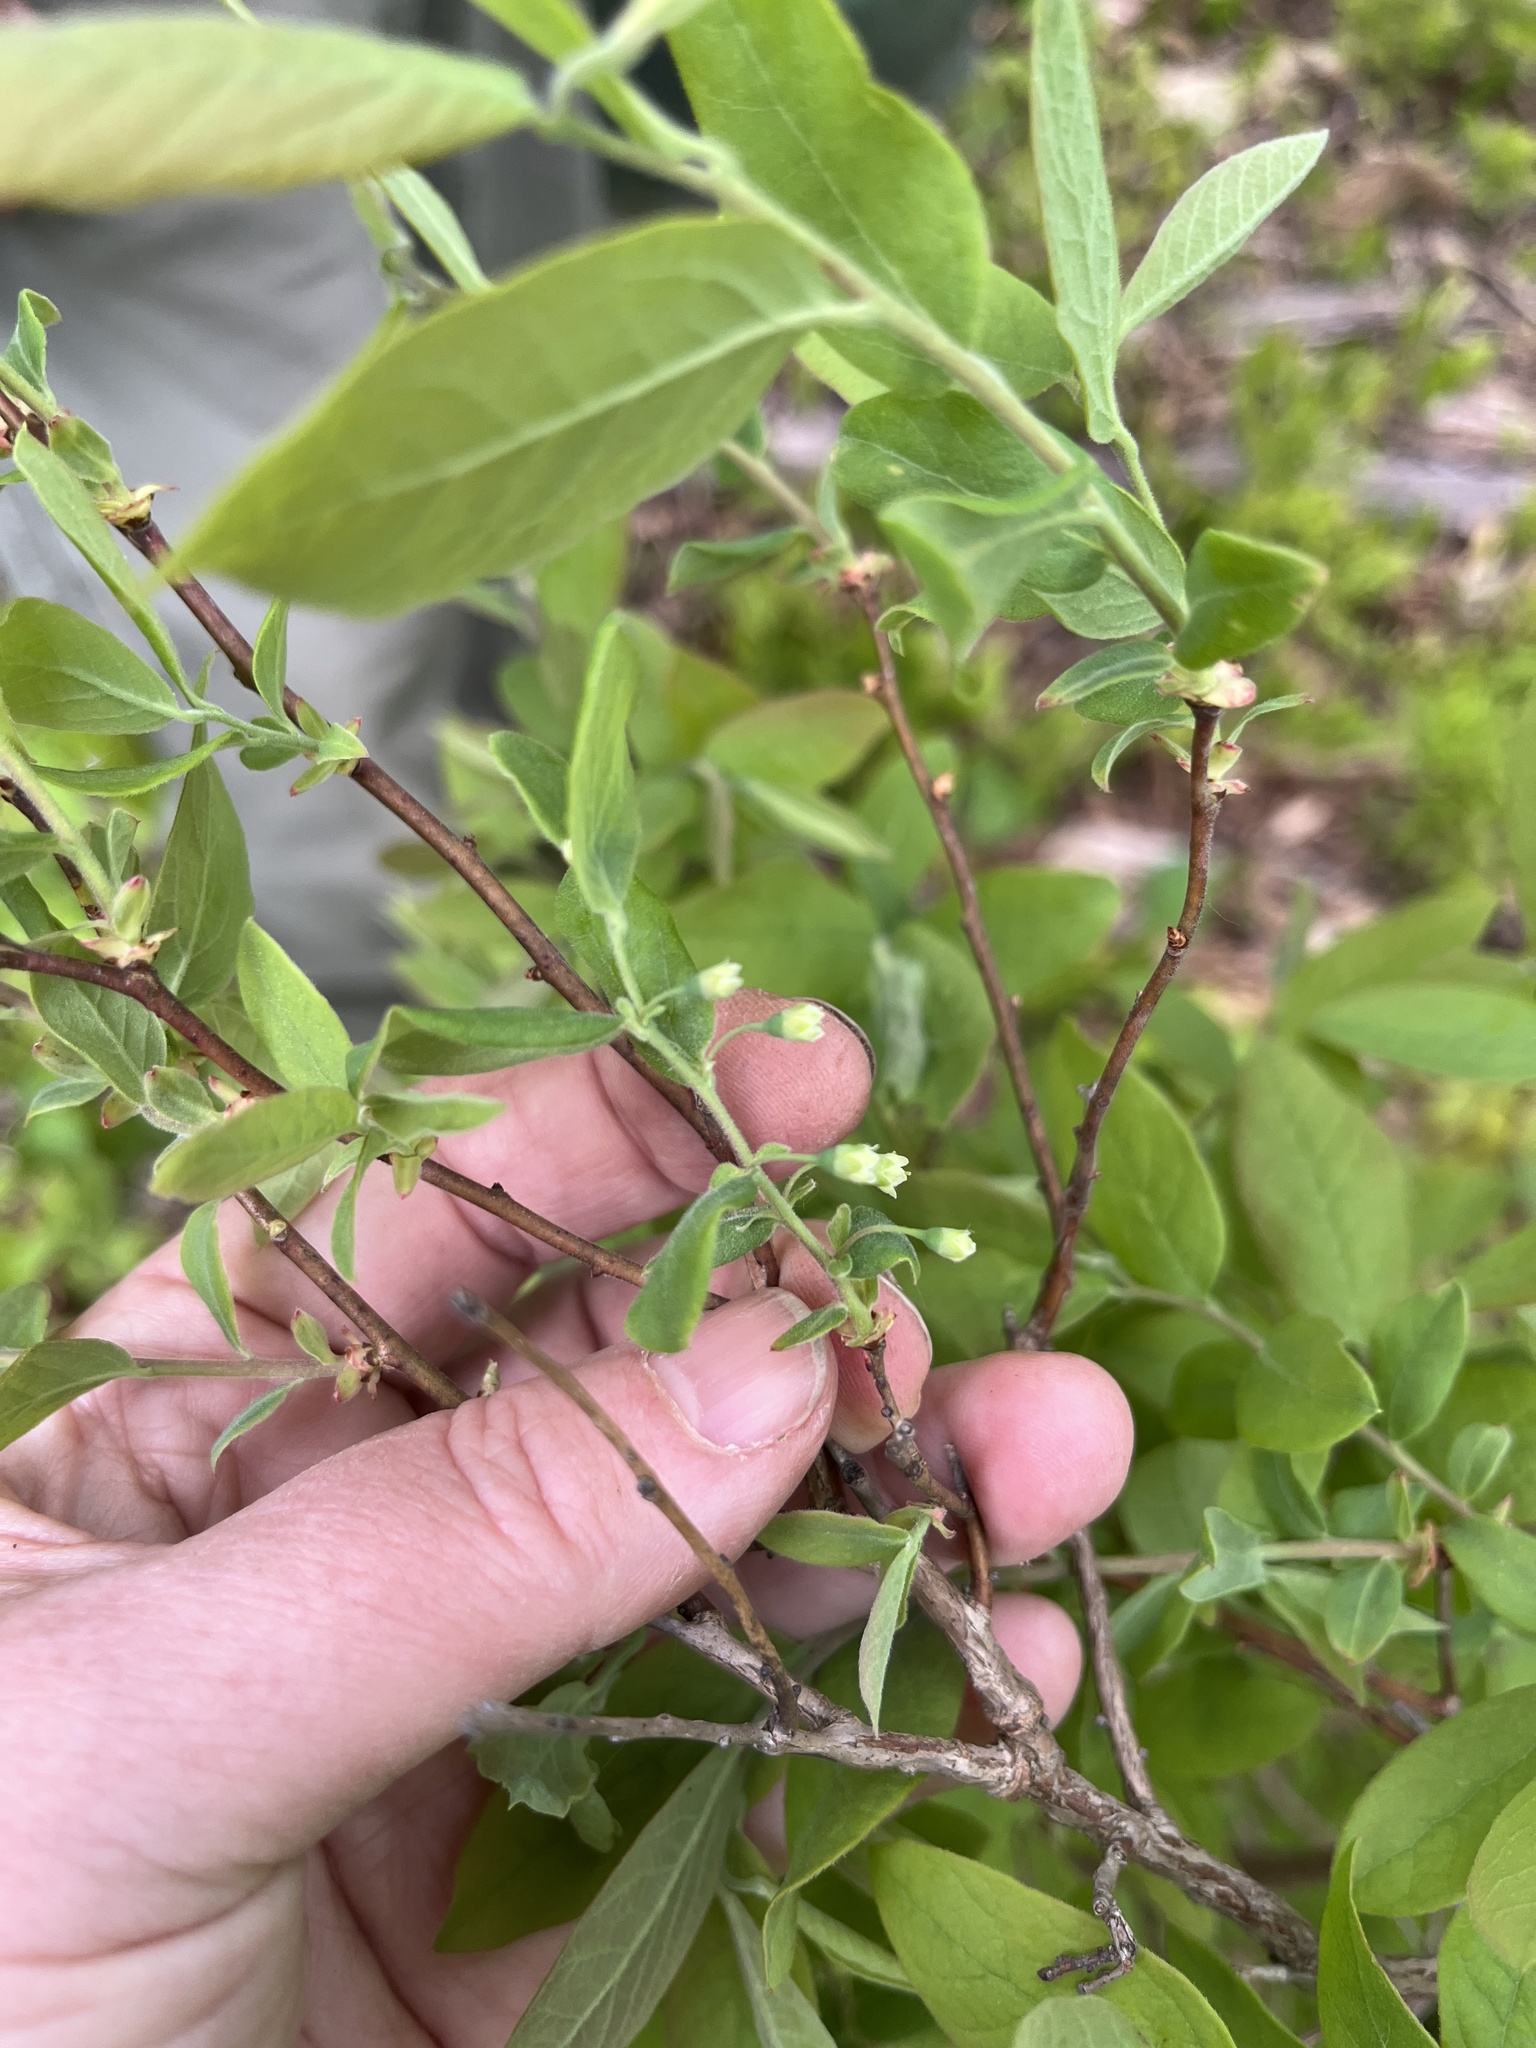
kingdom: Plantae
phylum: Tracheophyta
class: Magnoliopsida
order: Ericales
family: Ericaceae
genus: Vaccinium
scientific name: Vaccinium stamineum
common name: Deerberry
